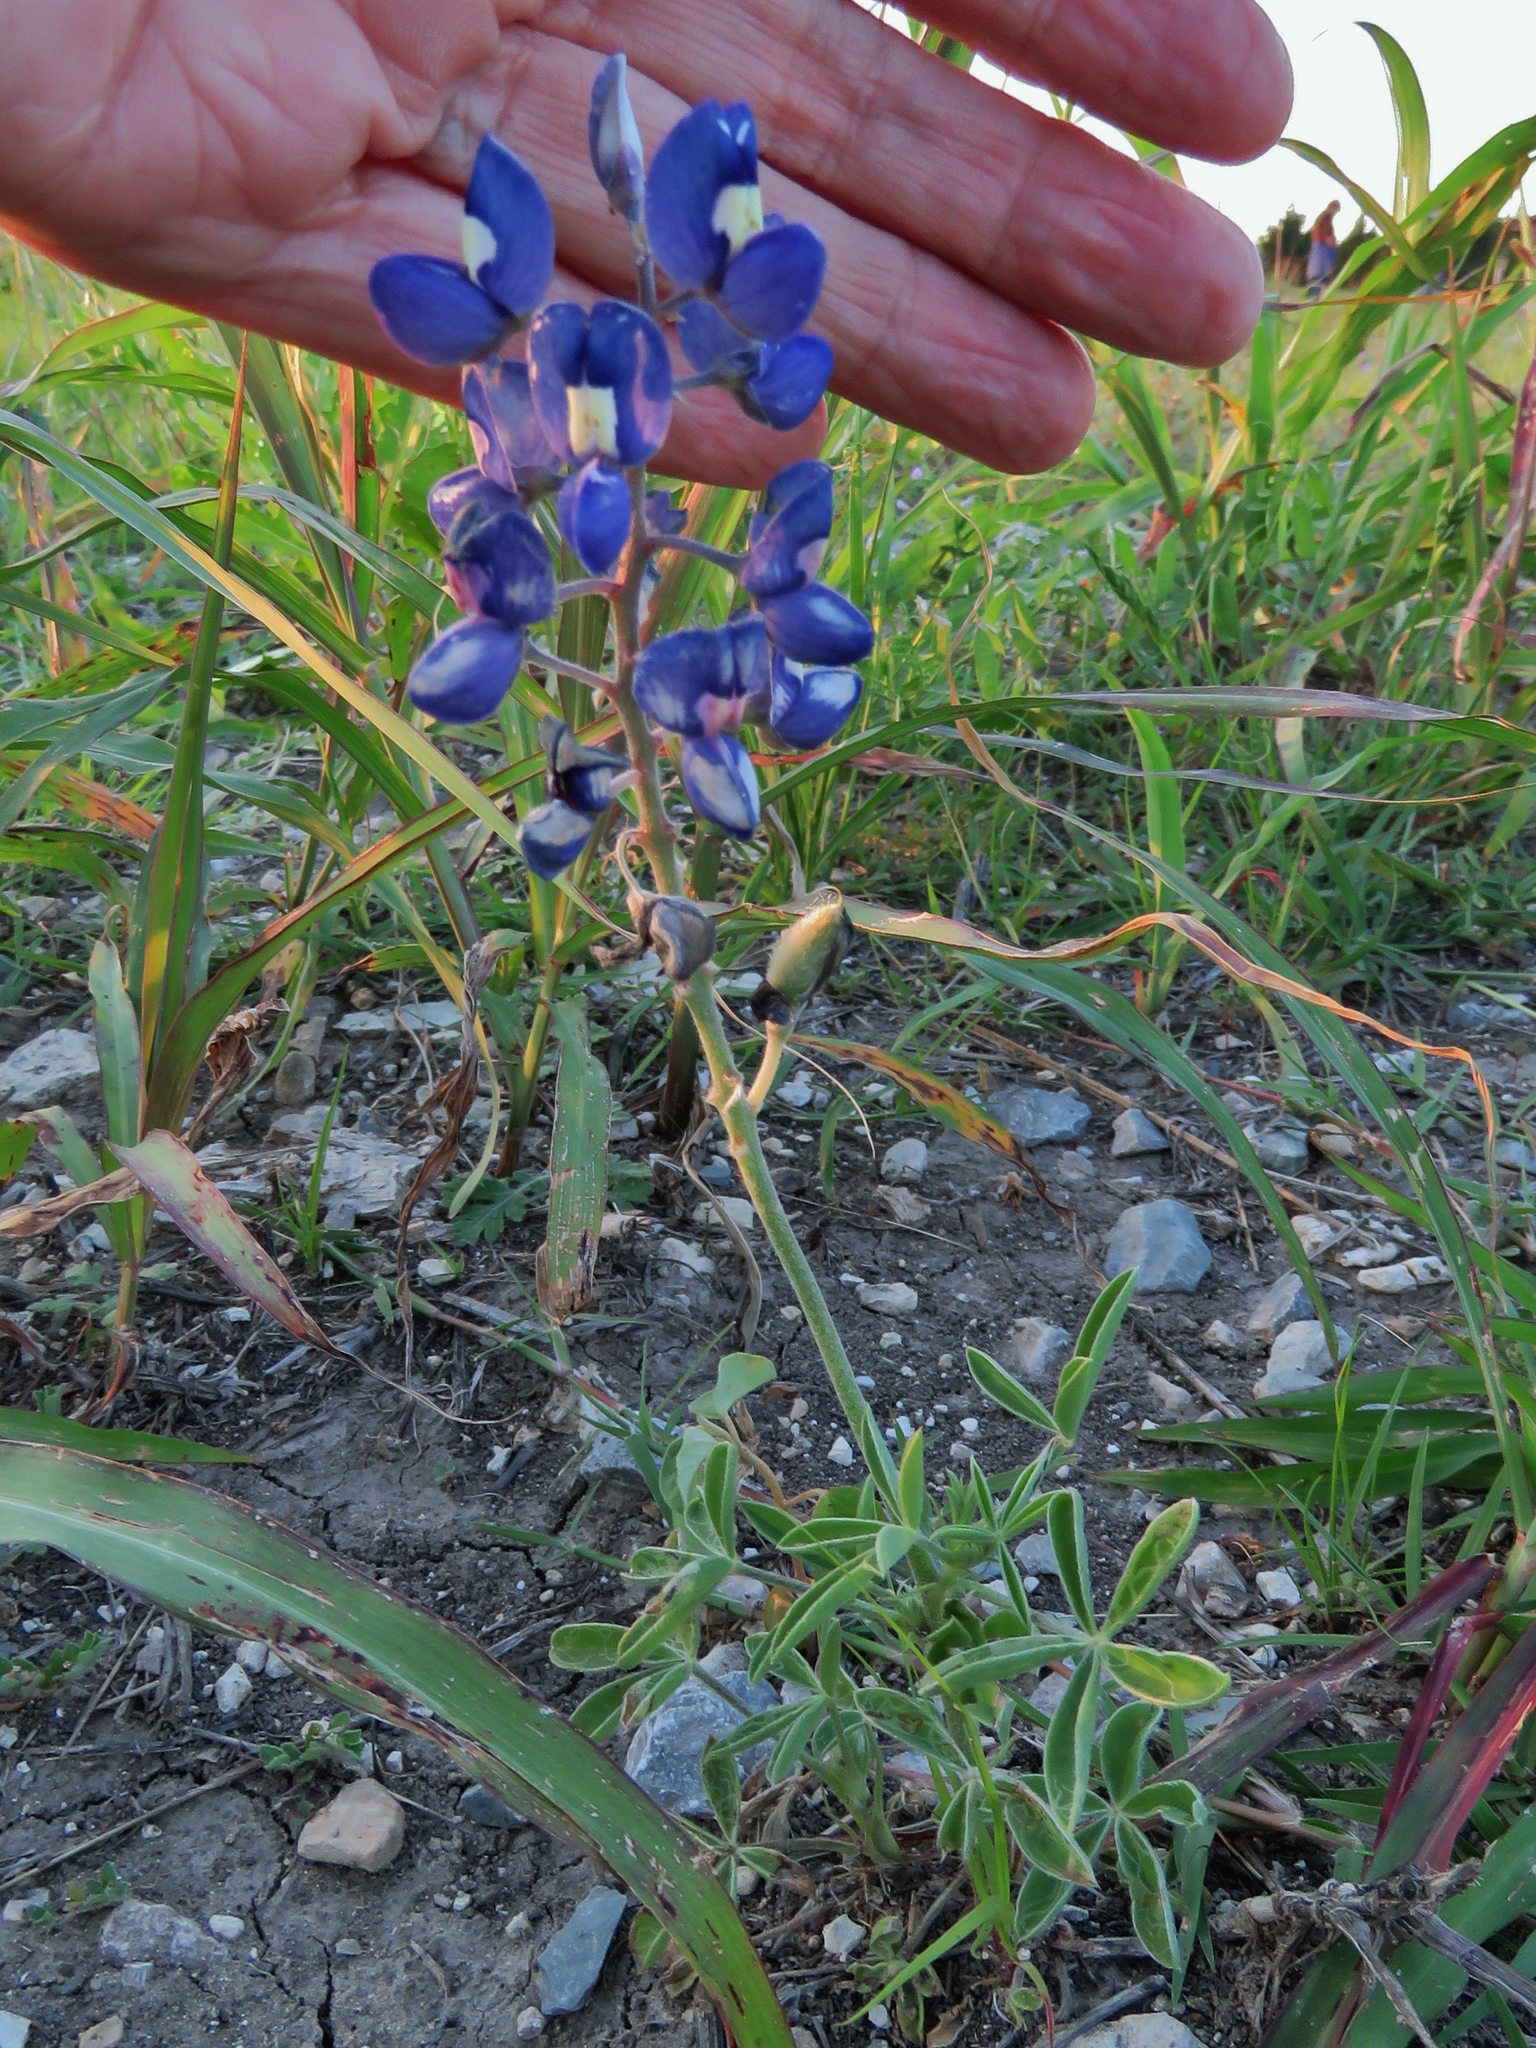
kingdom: Plantae
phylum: Tracheophyta
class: Magnoliopsida
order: Fabales
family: Fabaceae
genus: Lupinus
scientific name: Lupinus texensis
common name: Texas bluebonnet
